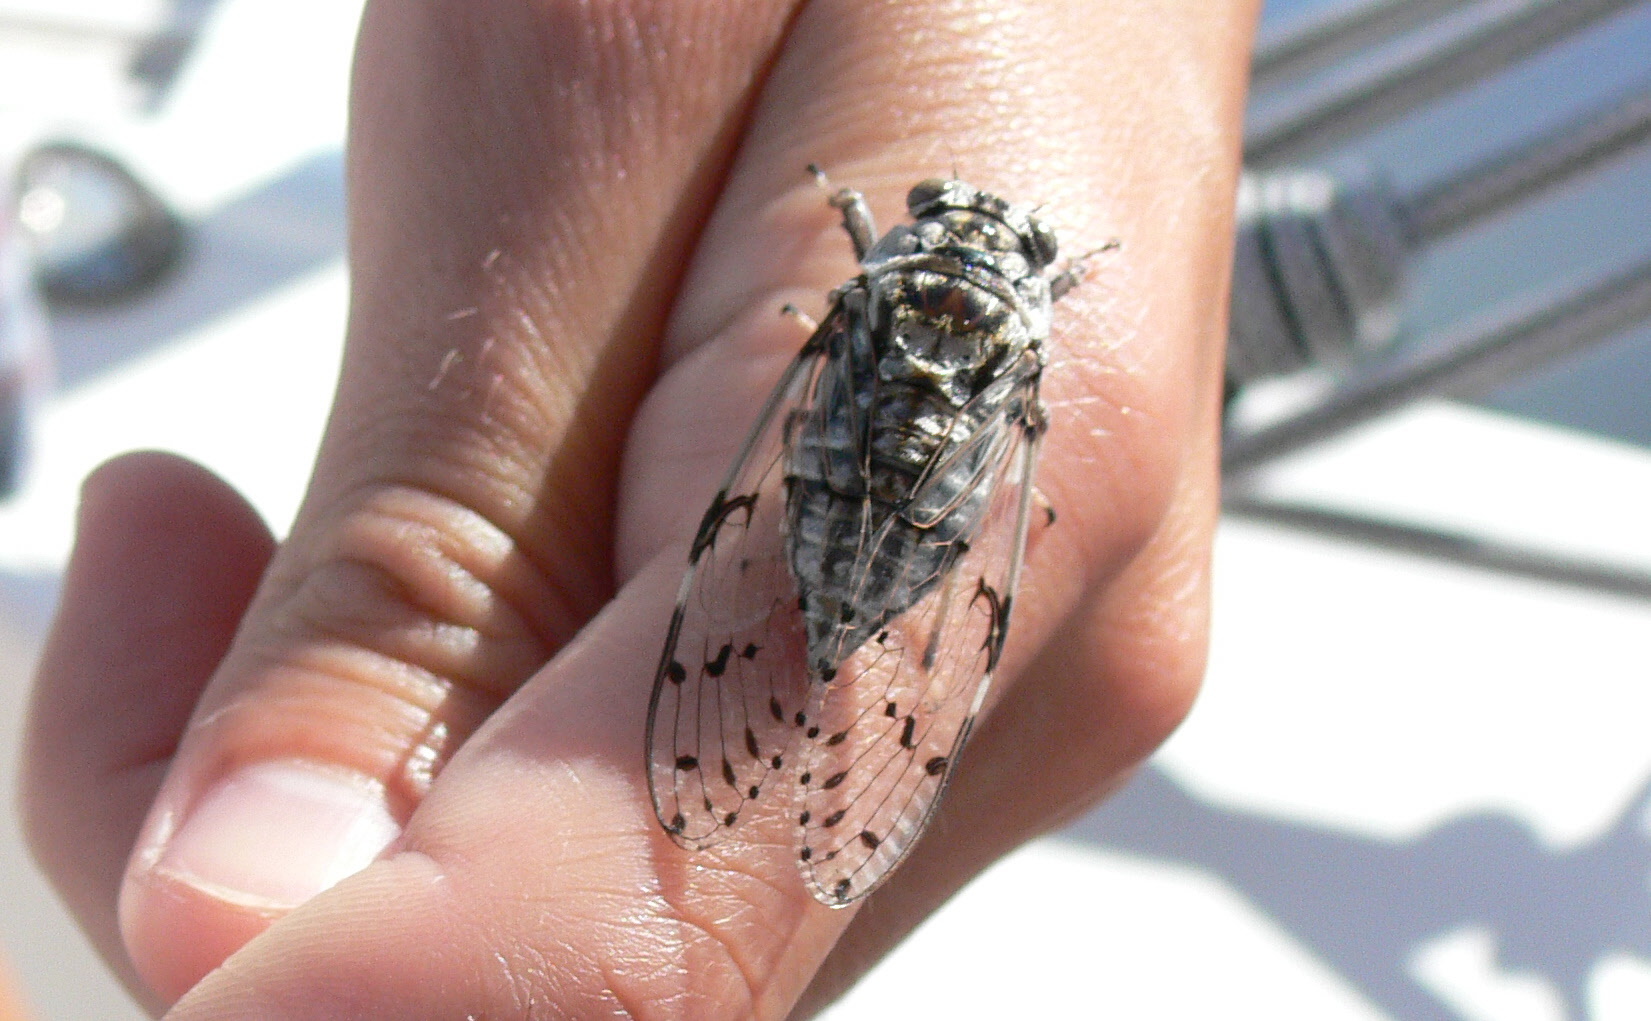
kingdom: Animalia
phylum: Arthropoda
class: Insecta
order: Hemiptera
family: Cicadidae
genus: Proarna
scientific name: Proarna insignis
